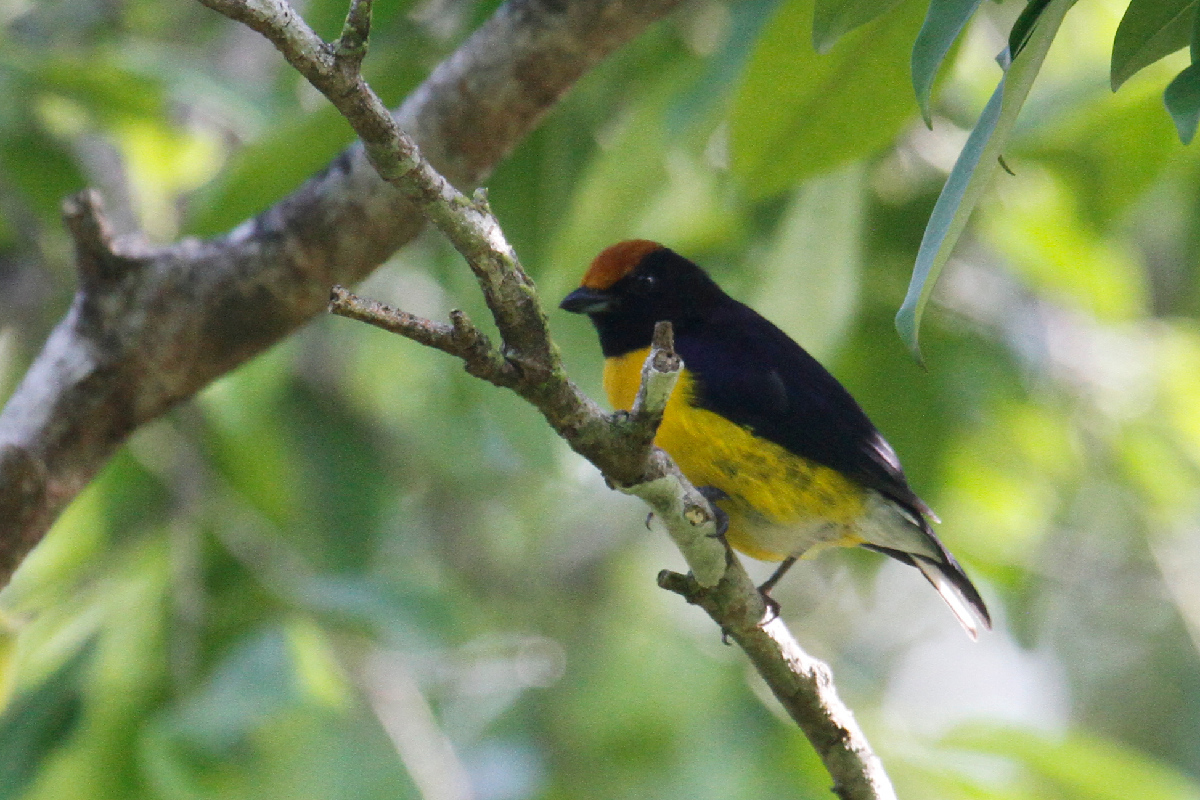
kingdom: Animalia
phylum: Chordata
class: Aves
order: Passeriformes
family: Fringillidae
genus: Euphonia
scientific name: Euphonia anneae
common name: Tawny-capped euphonia
